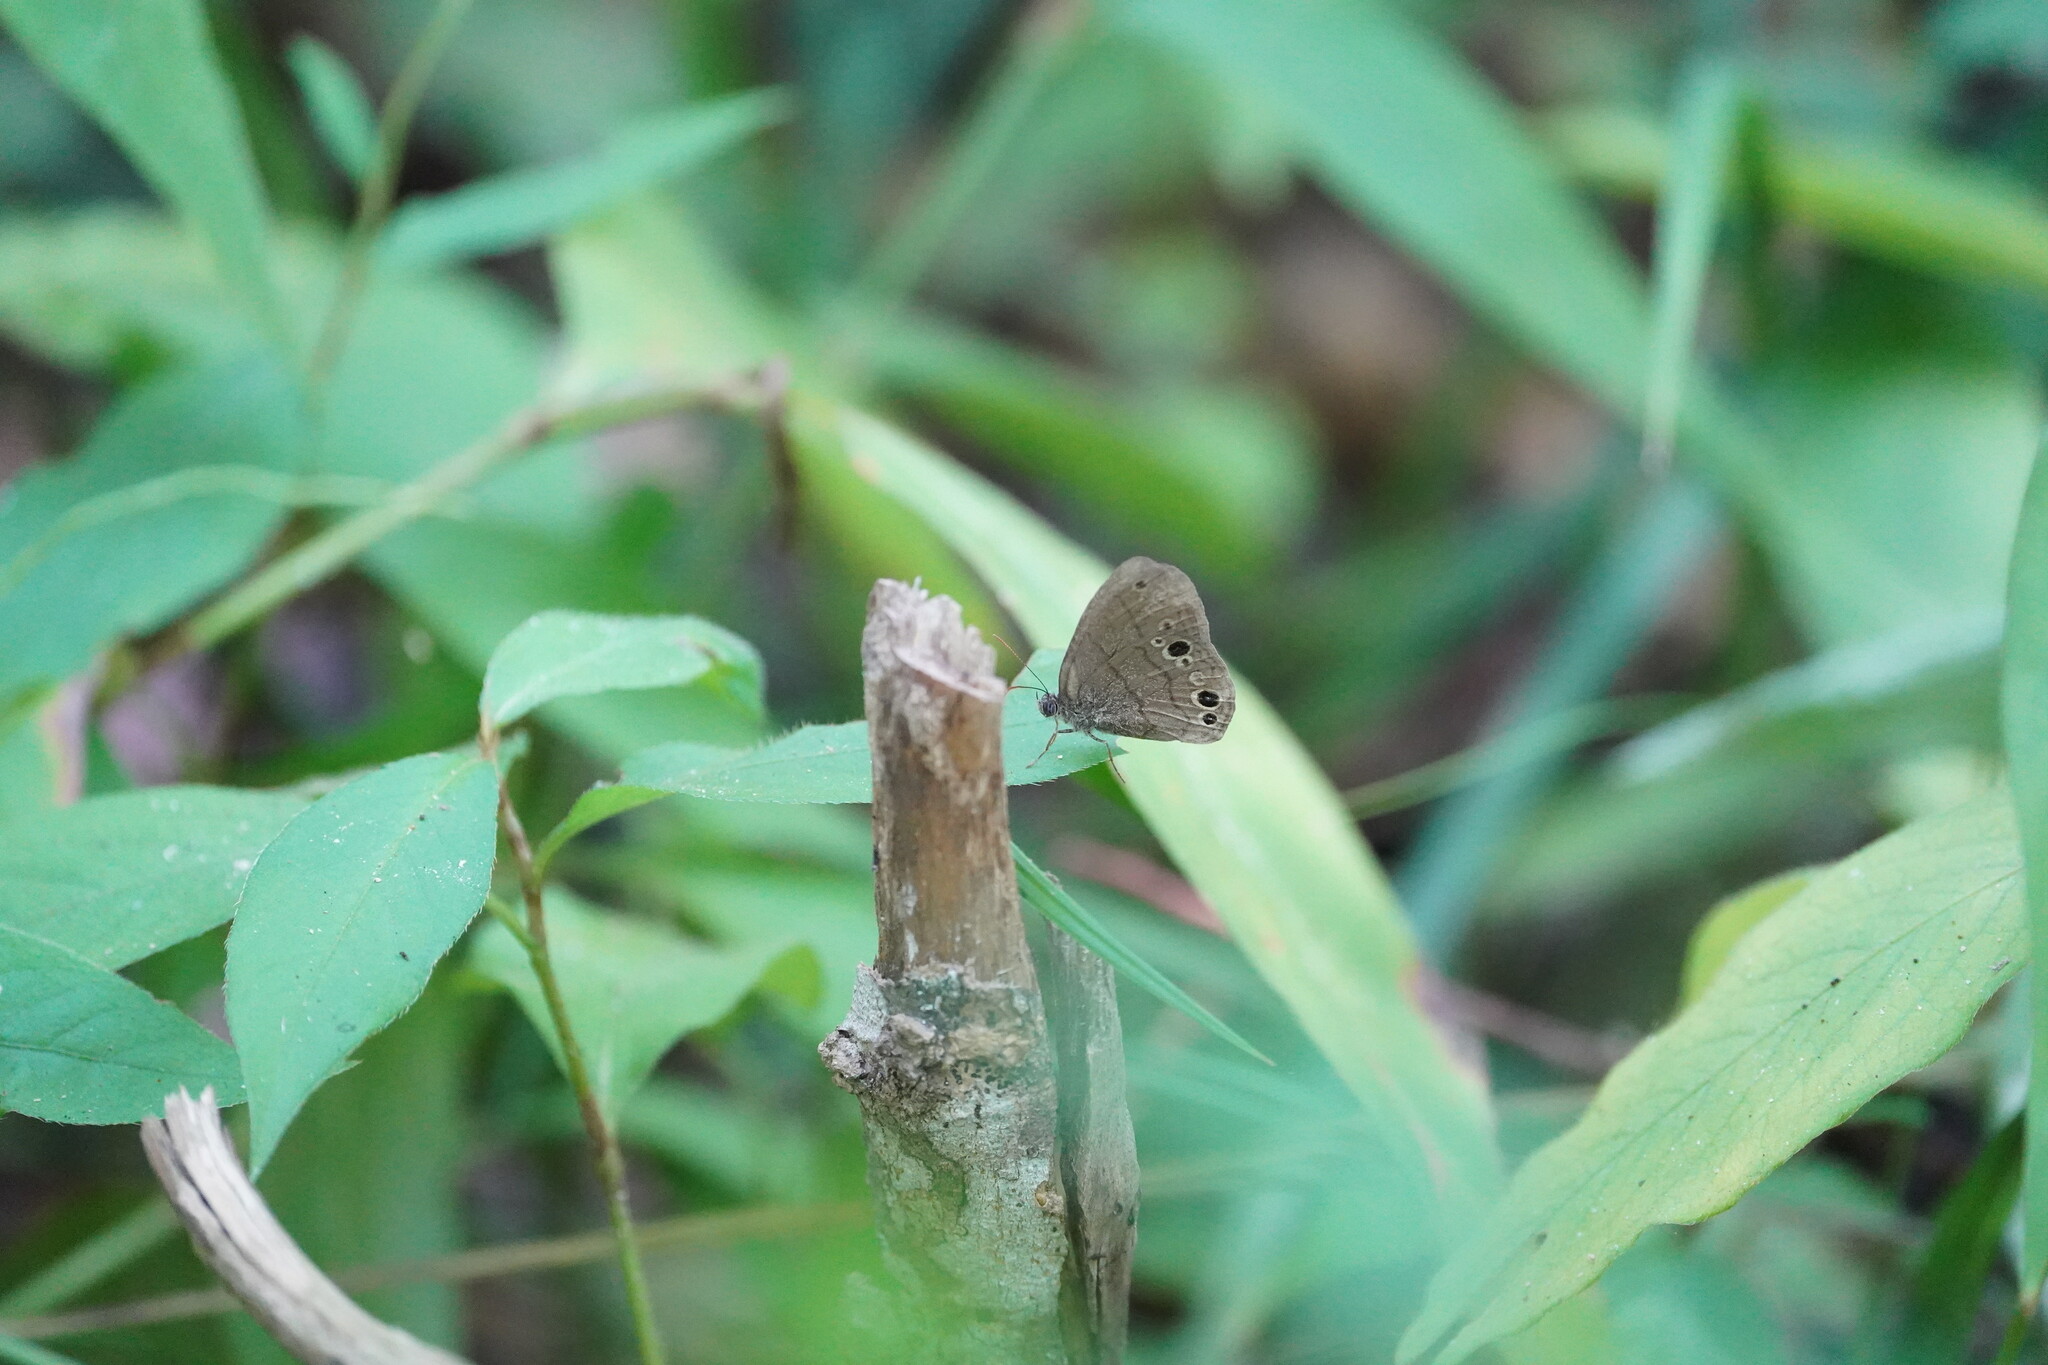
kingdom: Animalia
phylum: Arthropoda
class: Insecta
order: Lepidoptera
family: Nymphalidae
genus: Hermeuptychia
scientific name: Hermeuptychia hermes
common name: Hermes satyr
